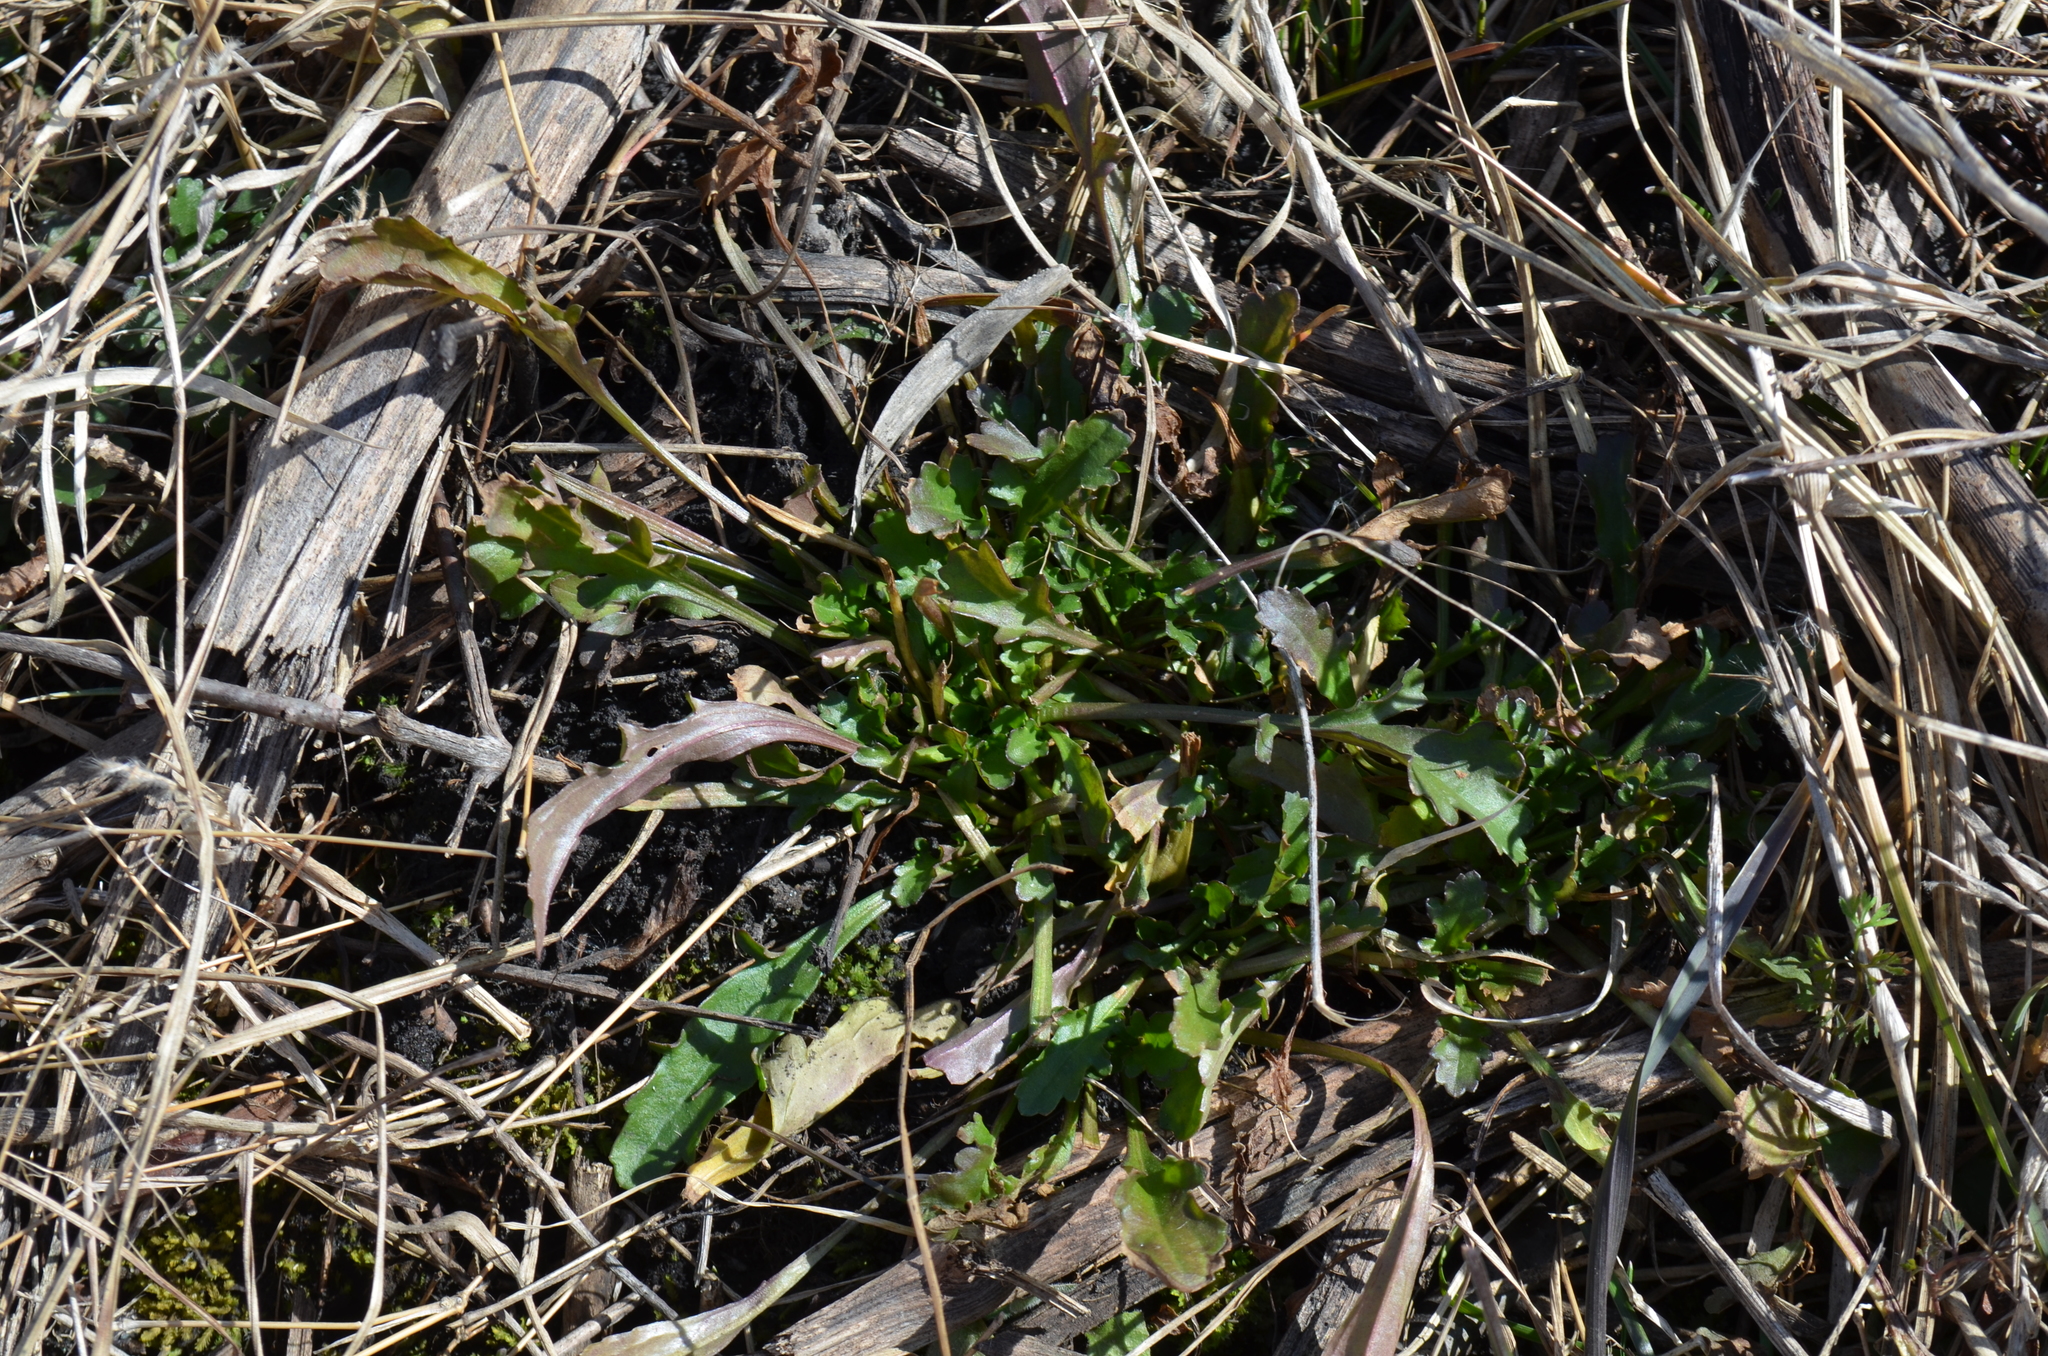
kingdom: Plantae
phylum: Tracheophyta
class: Magnoliopsida
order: Brassicales
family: Brassicaceae
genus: Barbarea
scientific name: Barbarea vulgaris
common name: Cressy-greens
